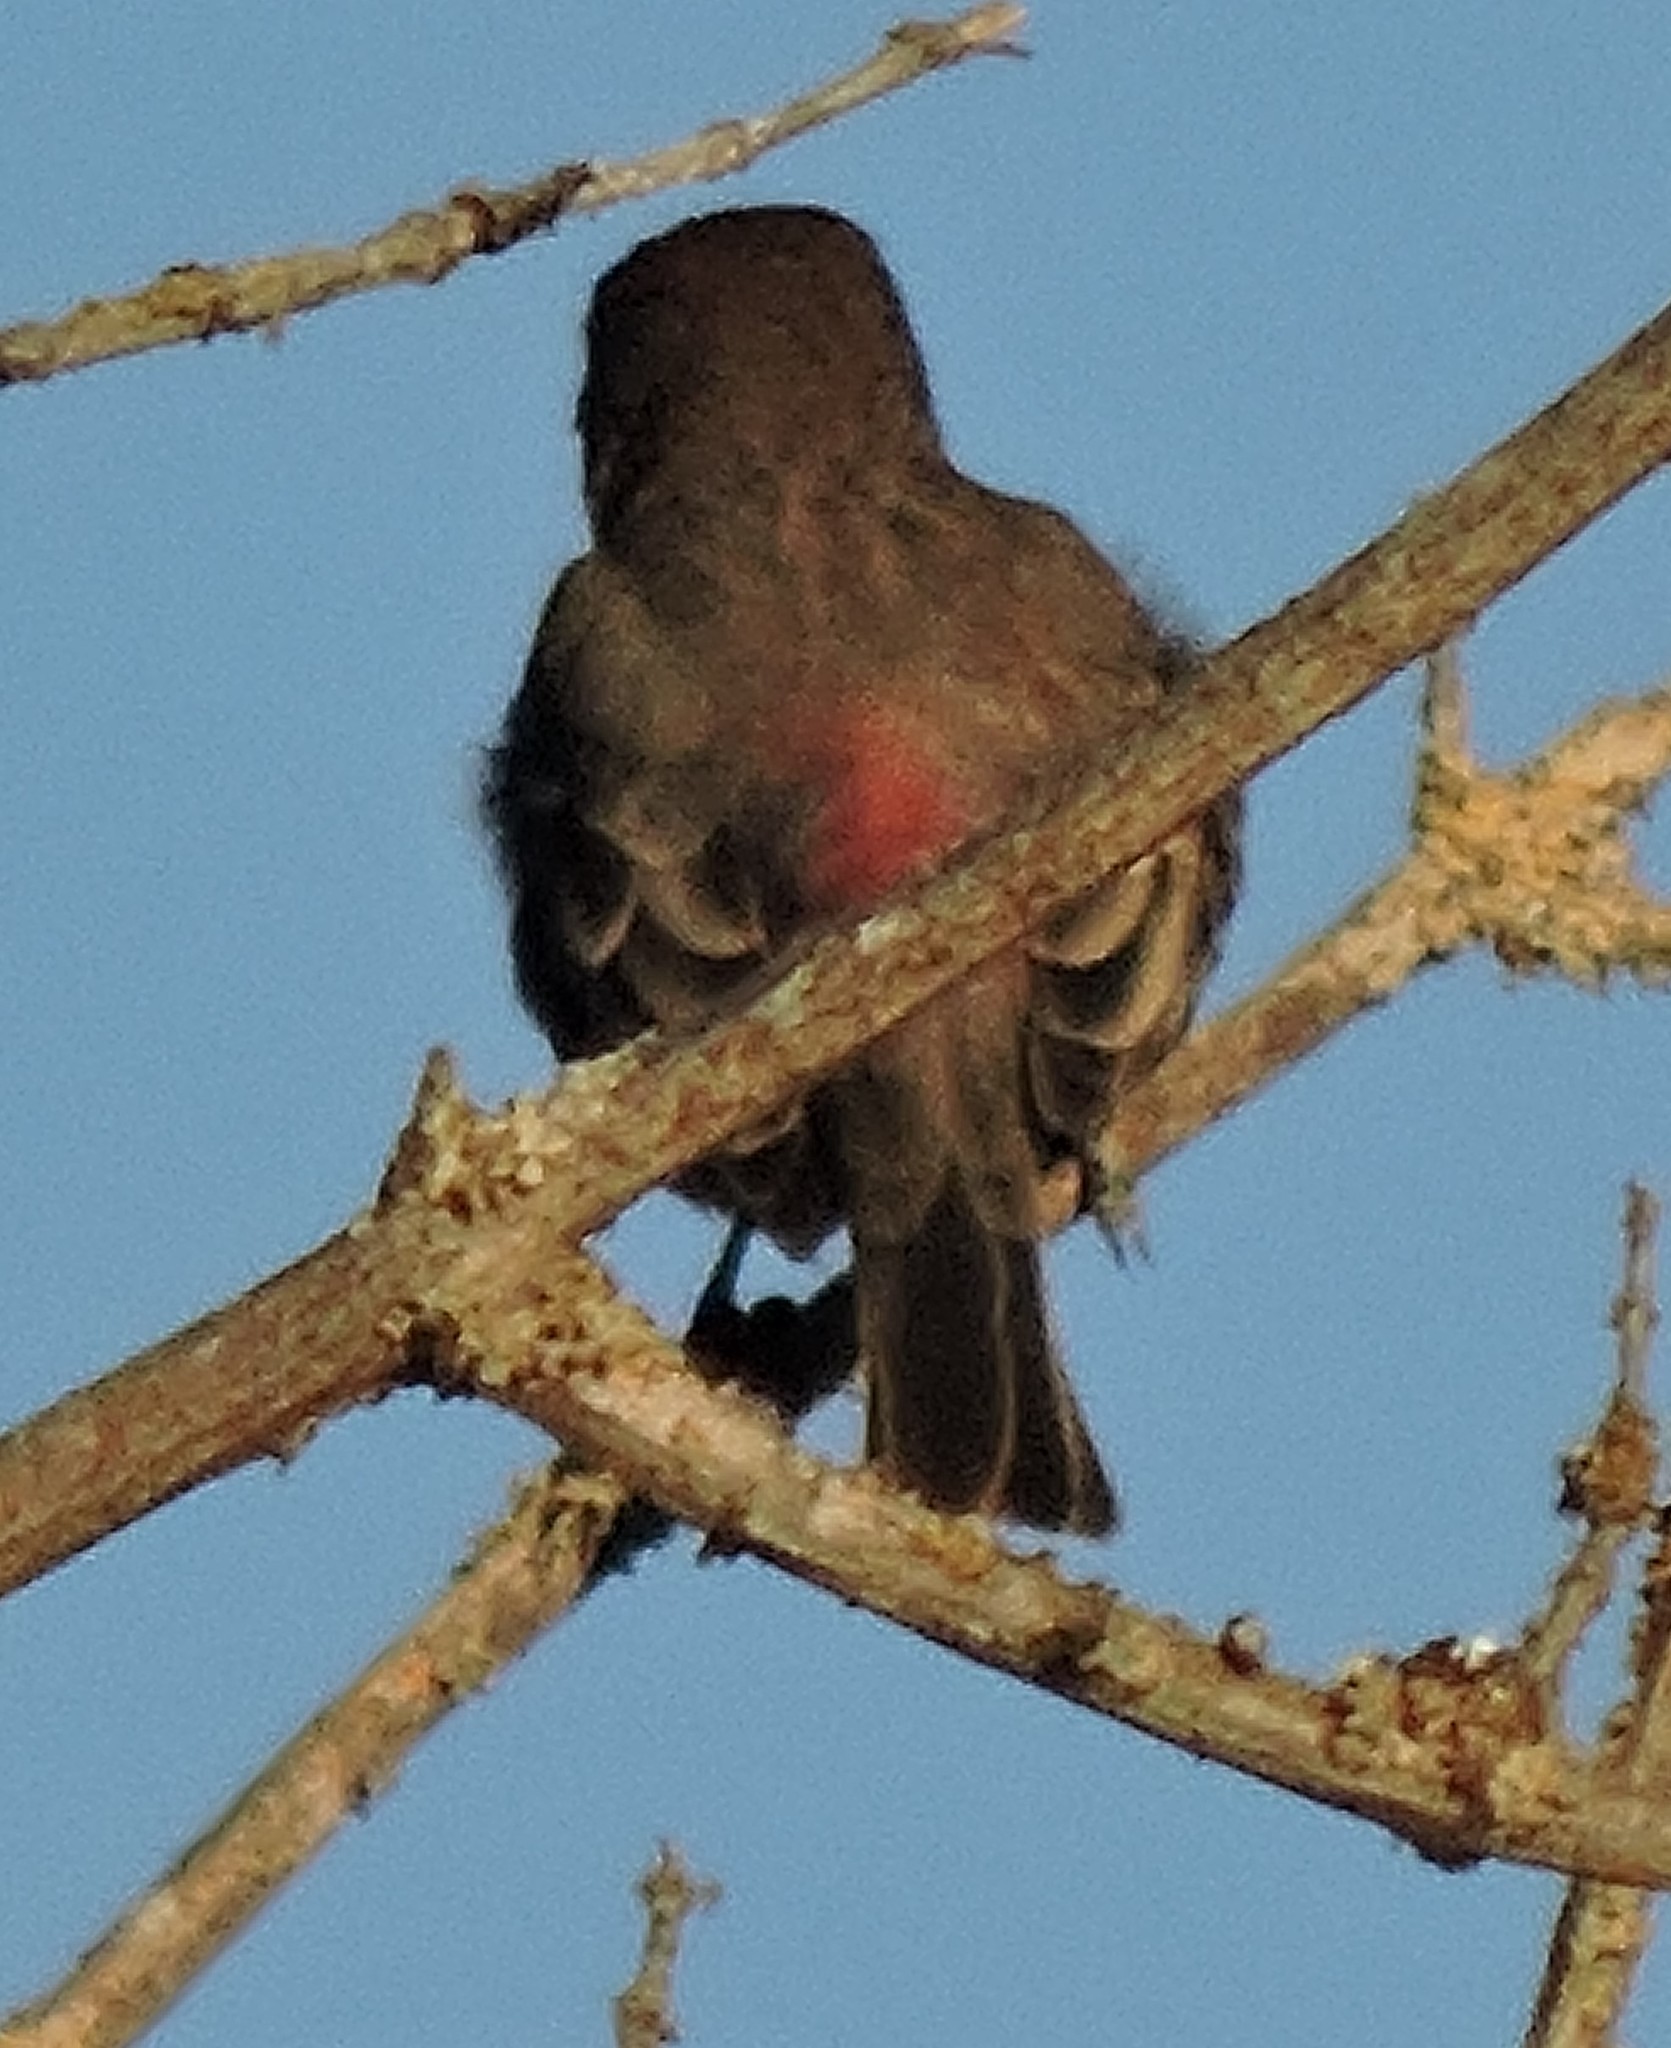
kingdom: Animalia
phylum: Chordata
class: Aves
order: Passeriformes
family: Fringillidae
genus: Haemorhous
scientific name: Haemorhous mexicanus
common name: House finch
